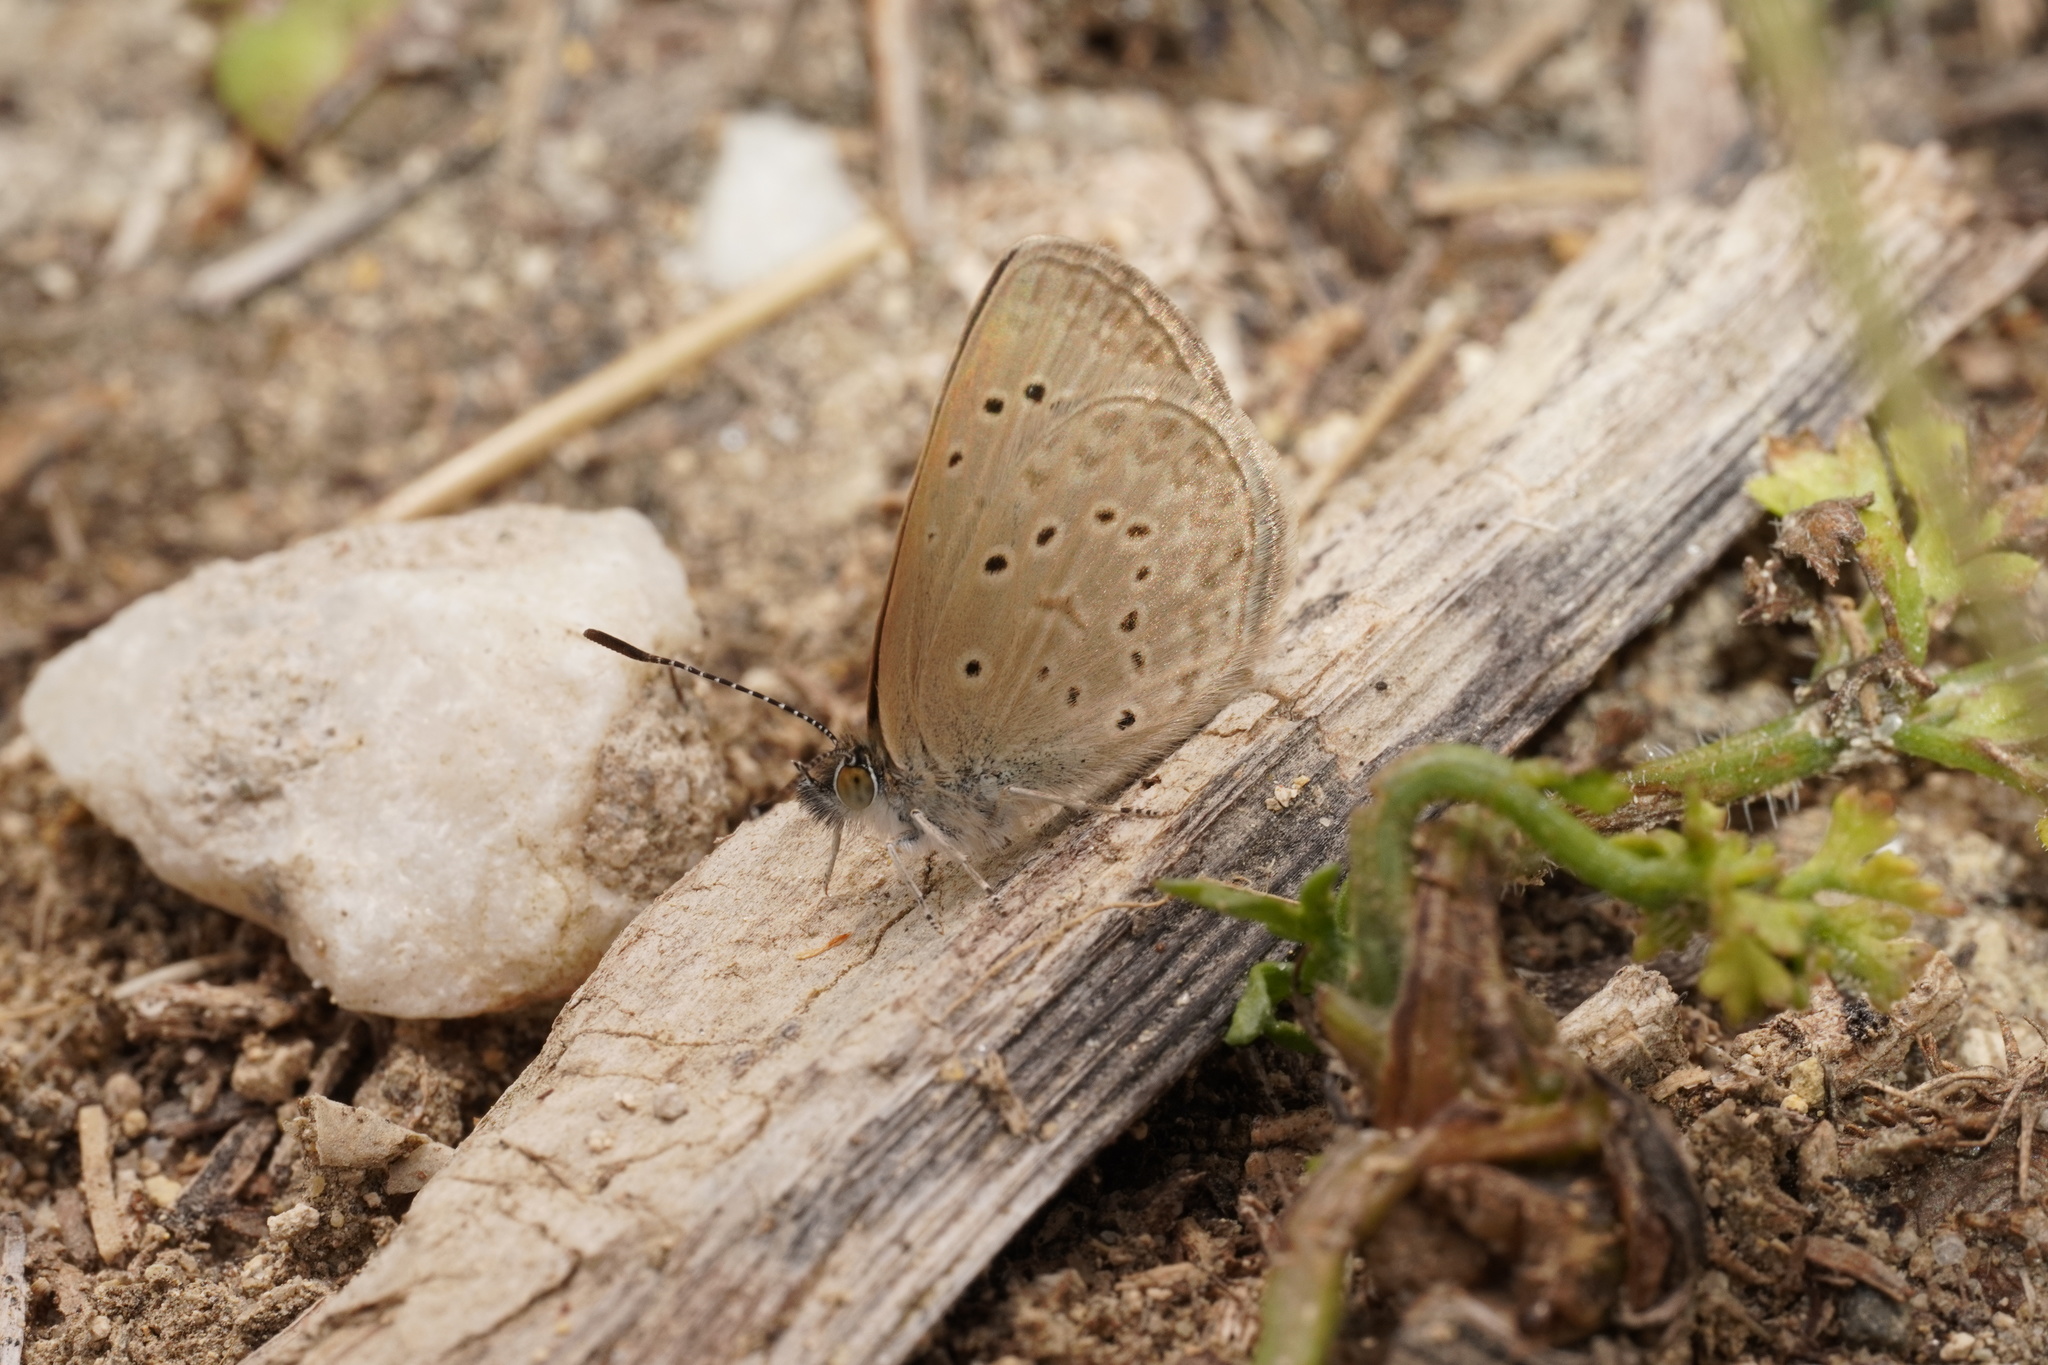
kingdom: Animalia
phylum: Arthropoda
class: Insecta
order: Lepidoptera
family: Lycaenidae
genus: Zizeeria
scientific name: Zizeeria knysna
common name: African grass blue
